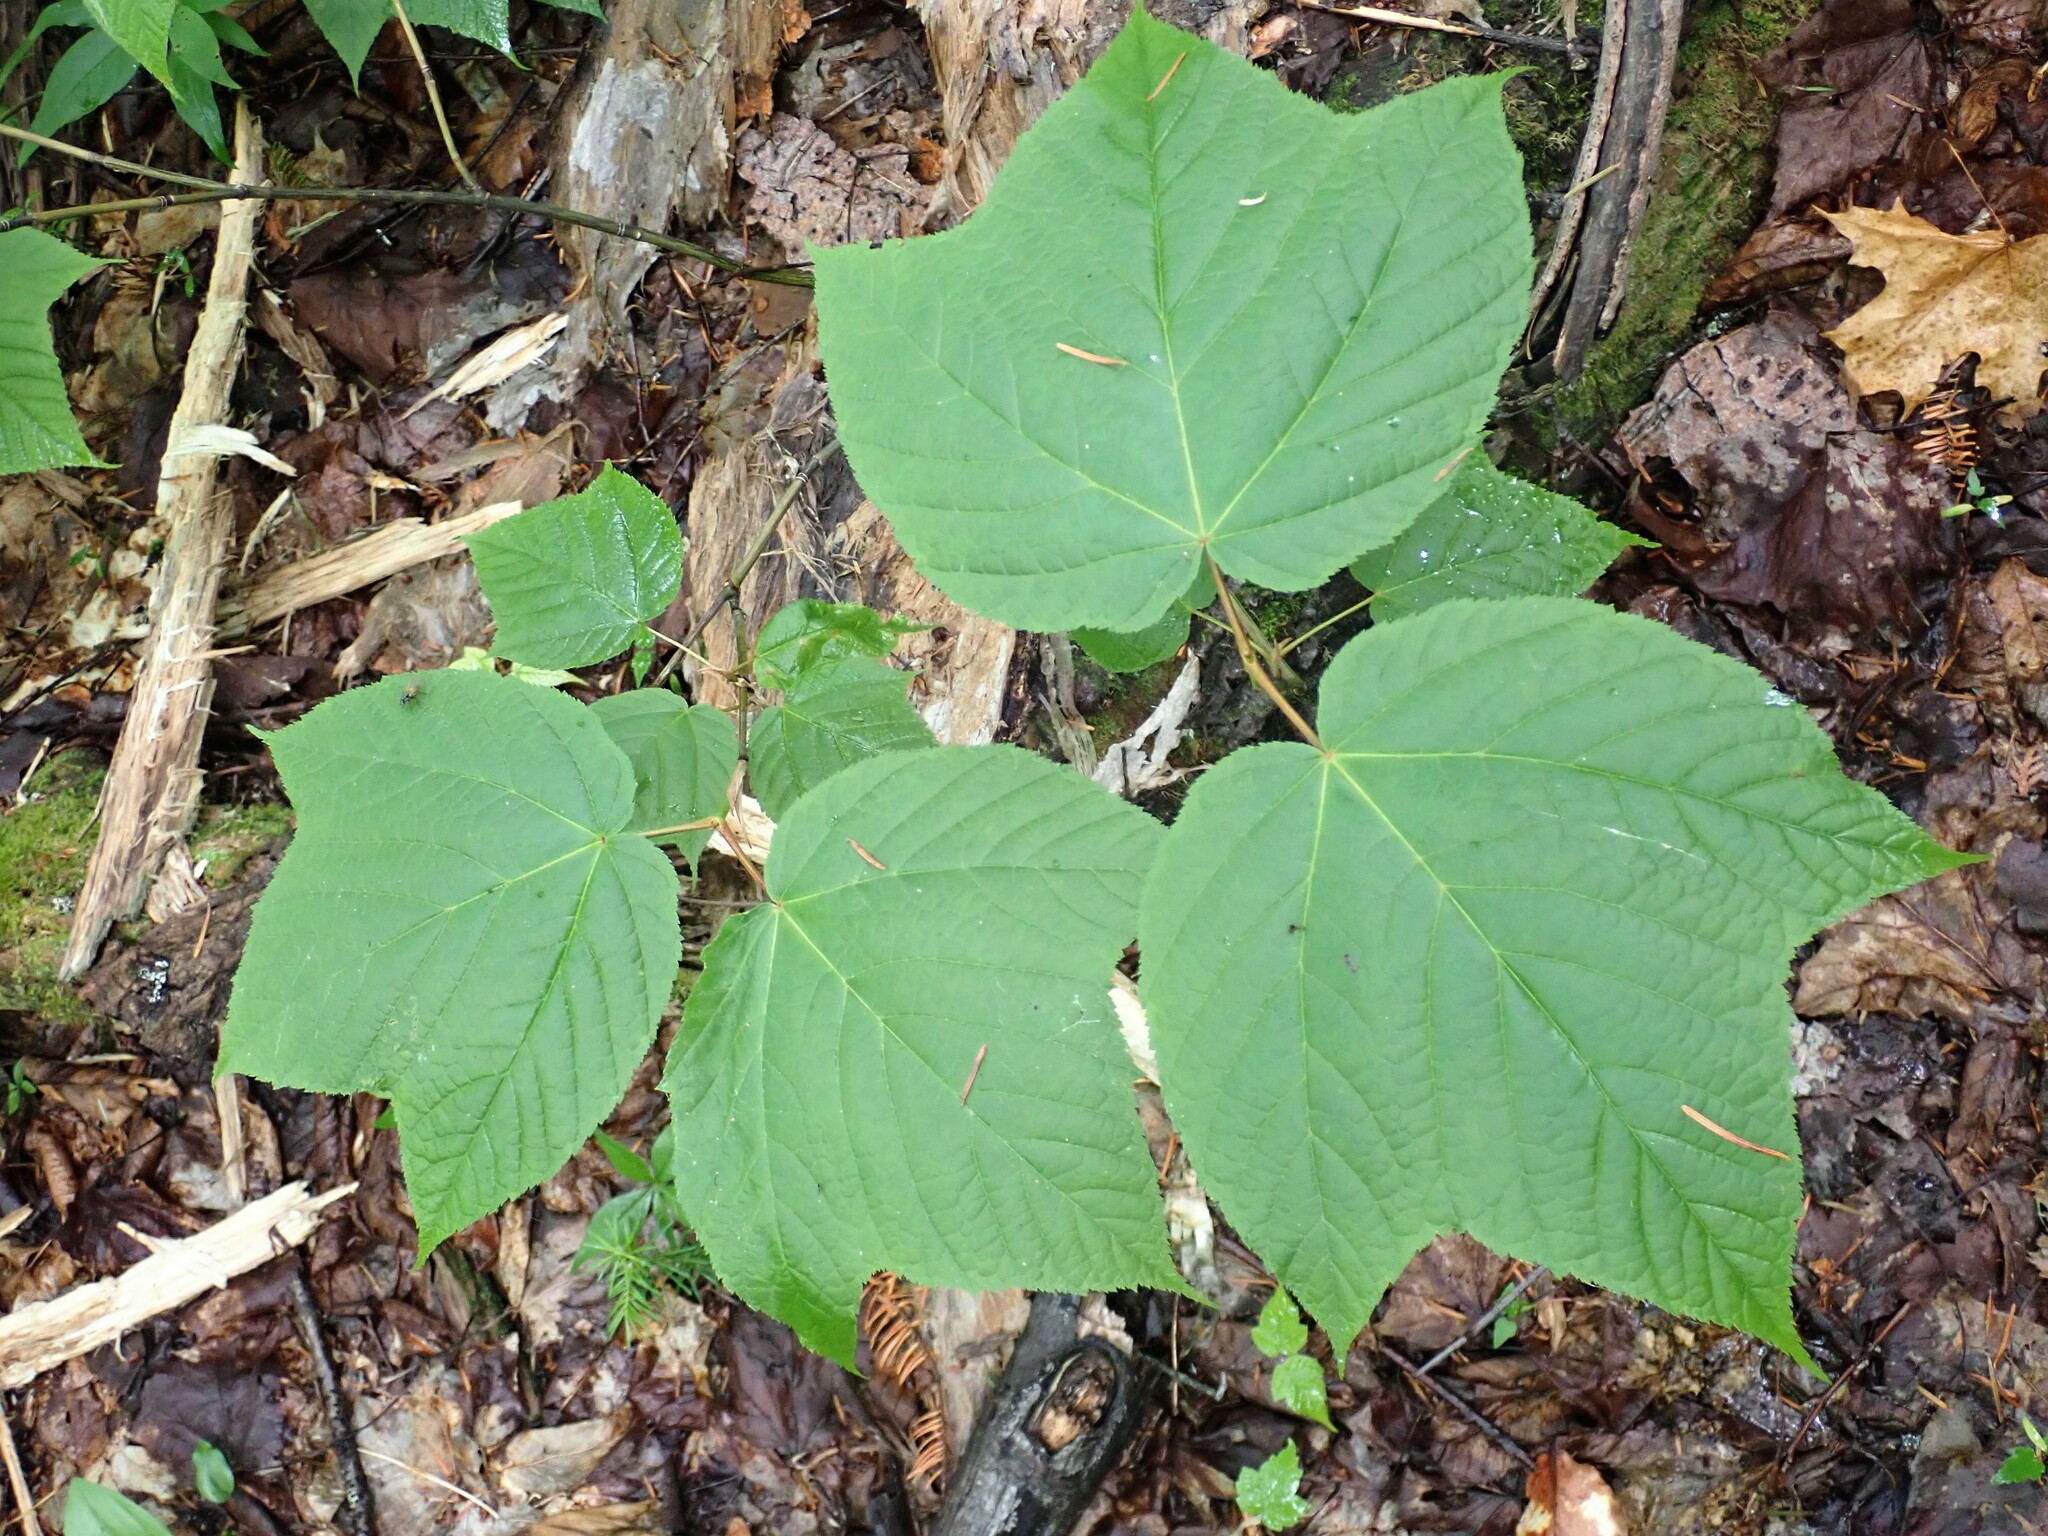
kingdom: Plantae
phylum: Tracheophyta
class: Magnoliopsida
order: Sapindales
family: Sapindaceae
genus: Acer
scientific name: Acer pensylvanicum
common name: Moosewood
